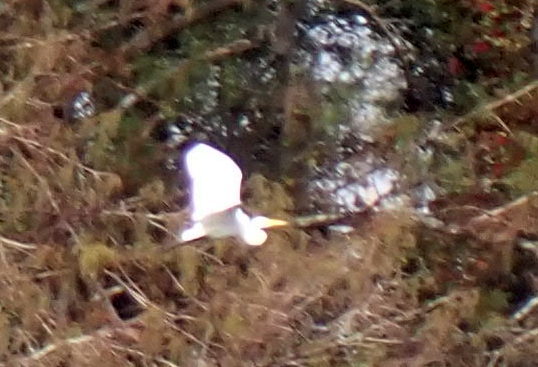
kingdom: Animalia
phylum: Chordata
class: Aves
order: Pelecaniformes
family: Ardeidae
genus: Ardea
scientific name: Ardea alba
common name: Great egret
